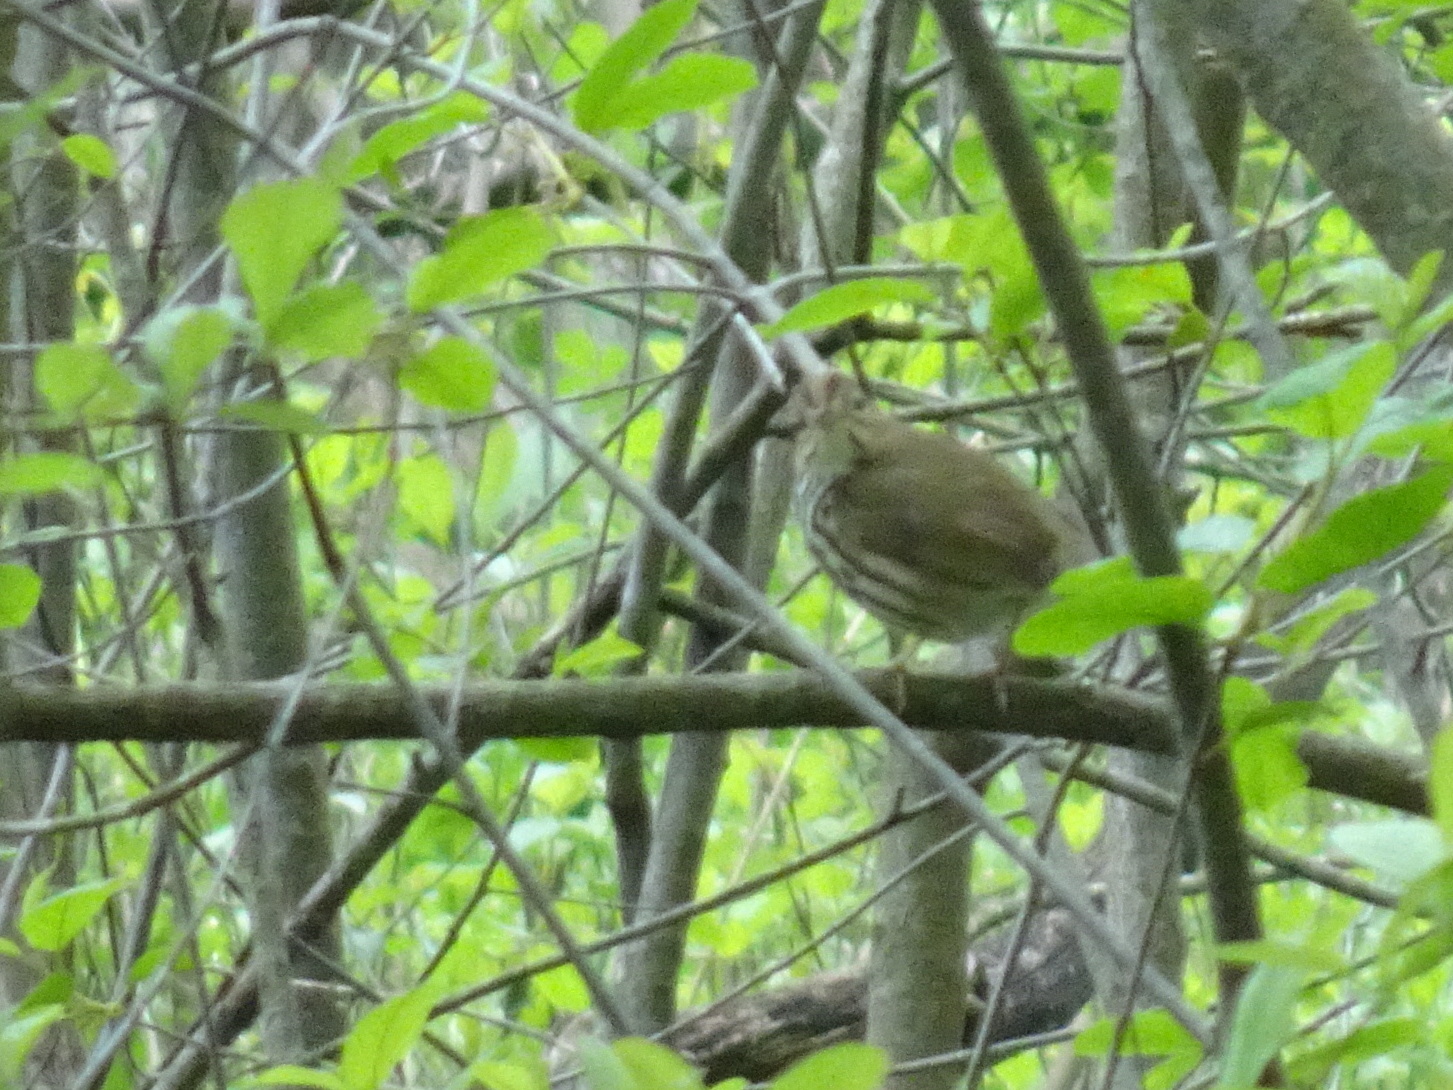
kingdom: Animalia
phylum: Chordata
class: Aves
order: Passeriformes
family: Parulidae
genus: Seiurus
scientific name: Seiurus aurocapilla
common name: Ovenbird
